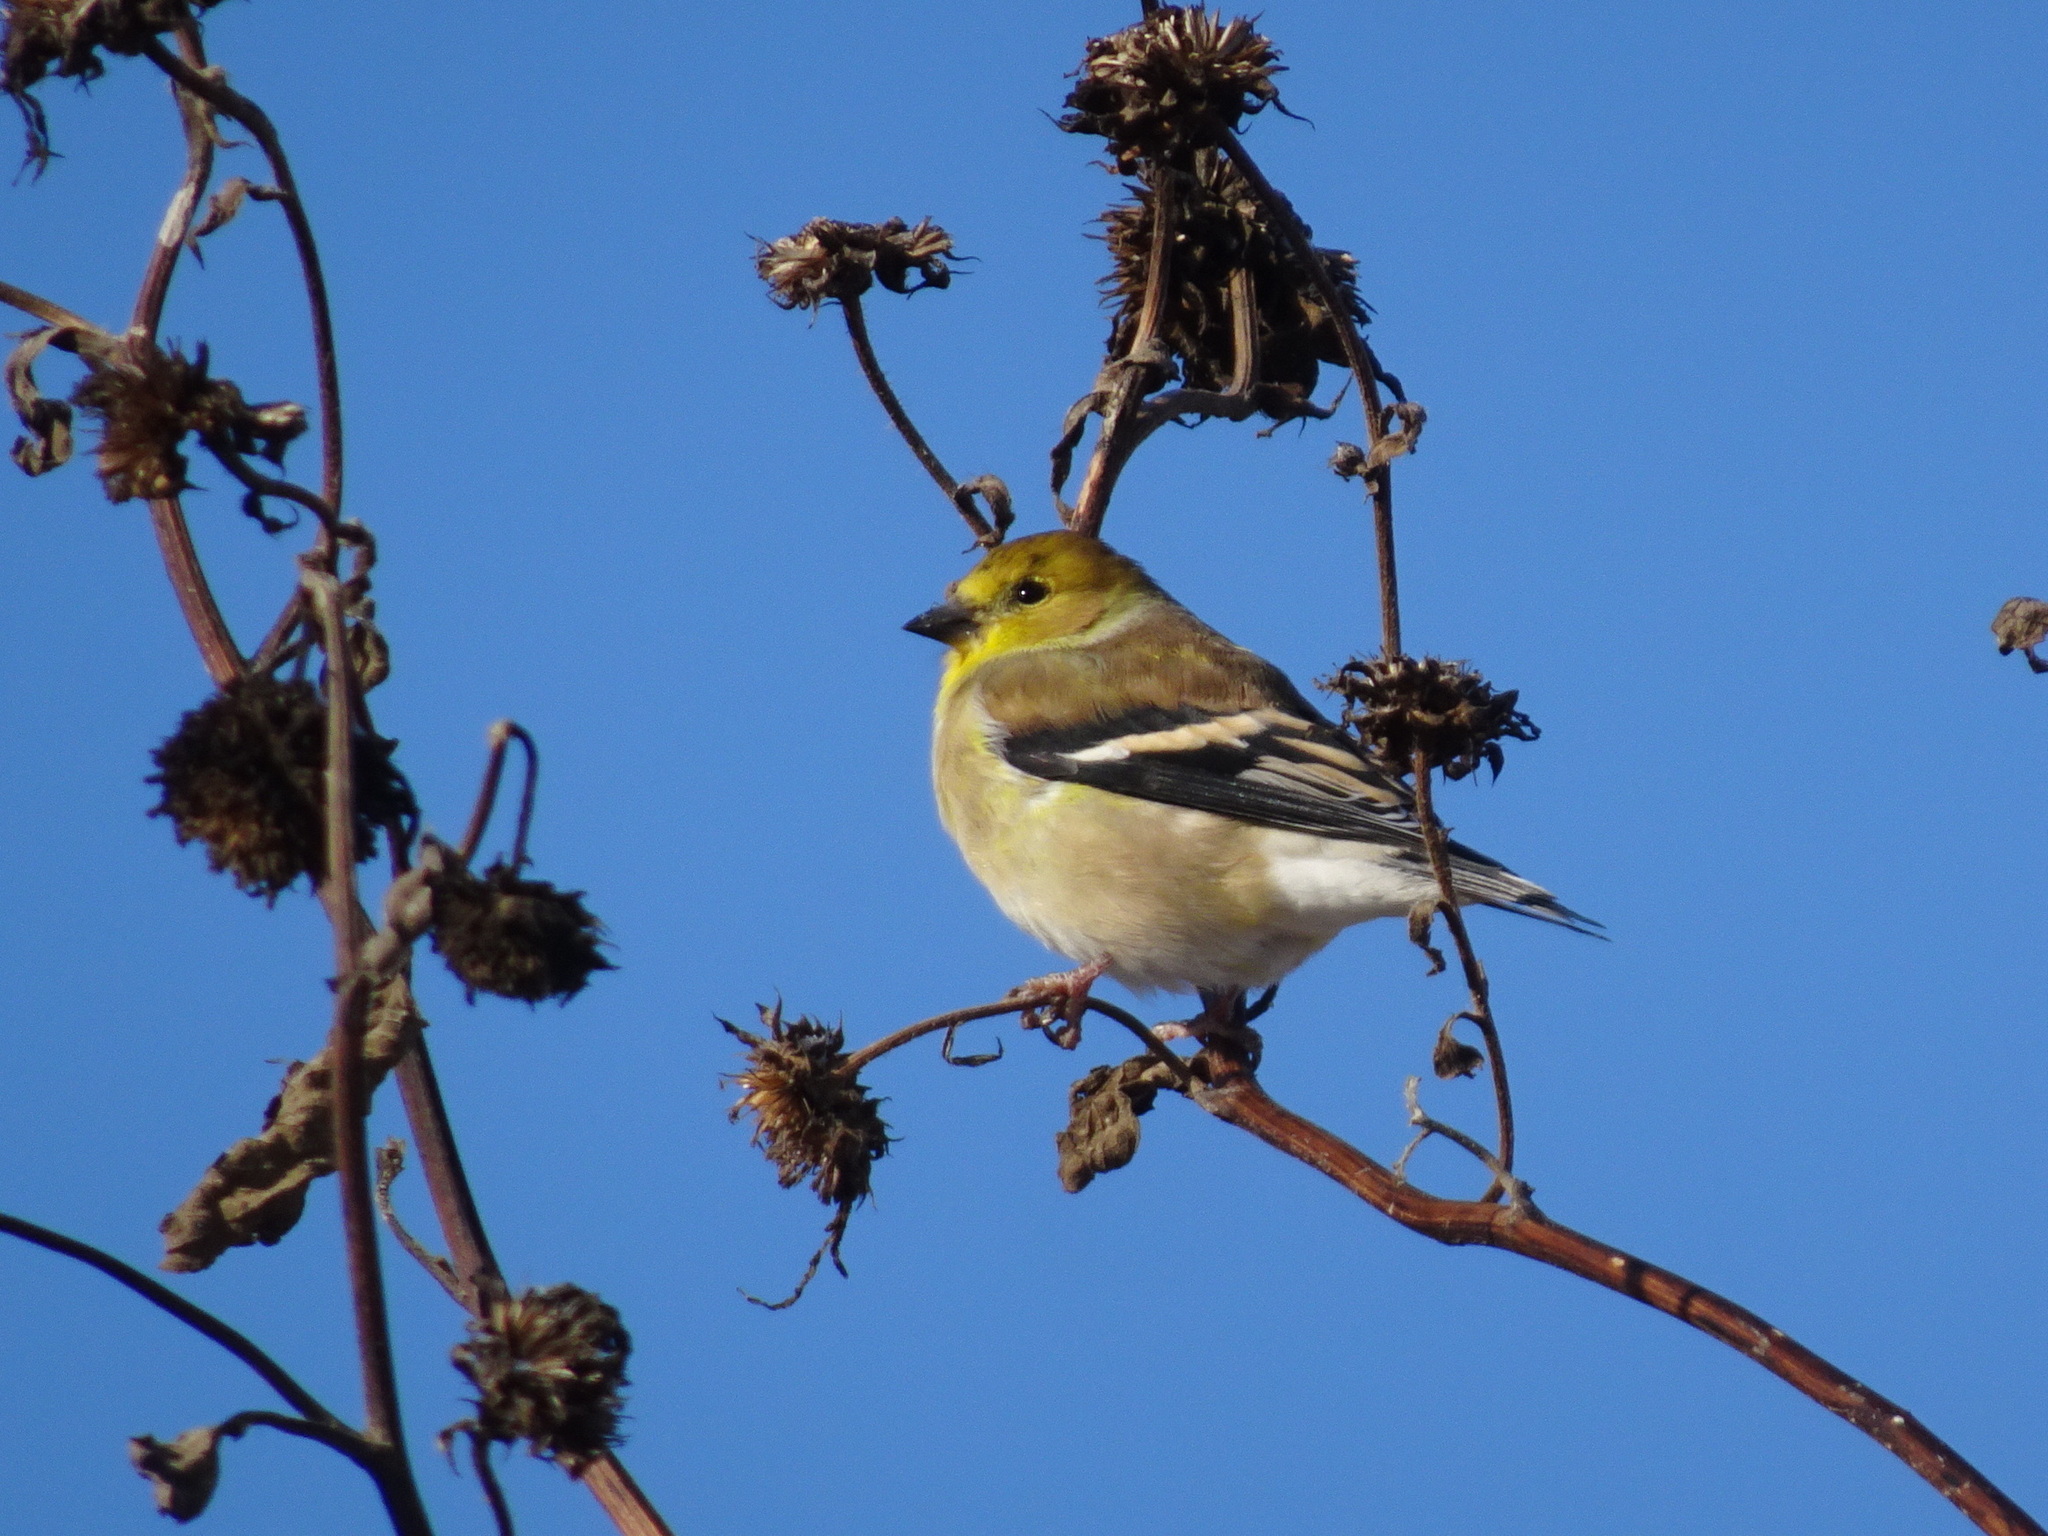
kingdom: Animalia
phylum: Chordata
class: Aves
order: Passeriformes
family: Fringillidae
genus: Spinus
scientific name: Spinus tristis
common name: American goldfinch
